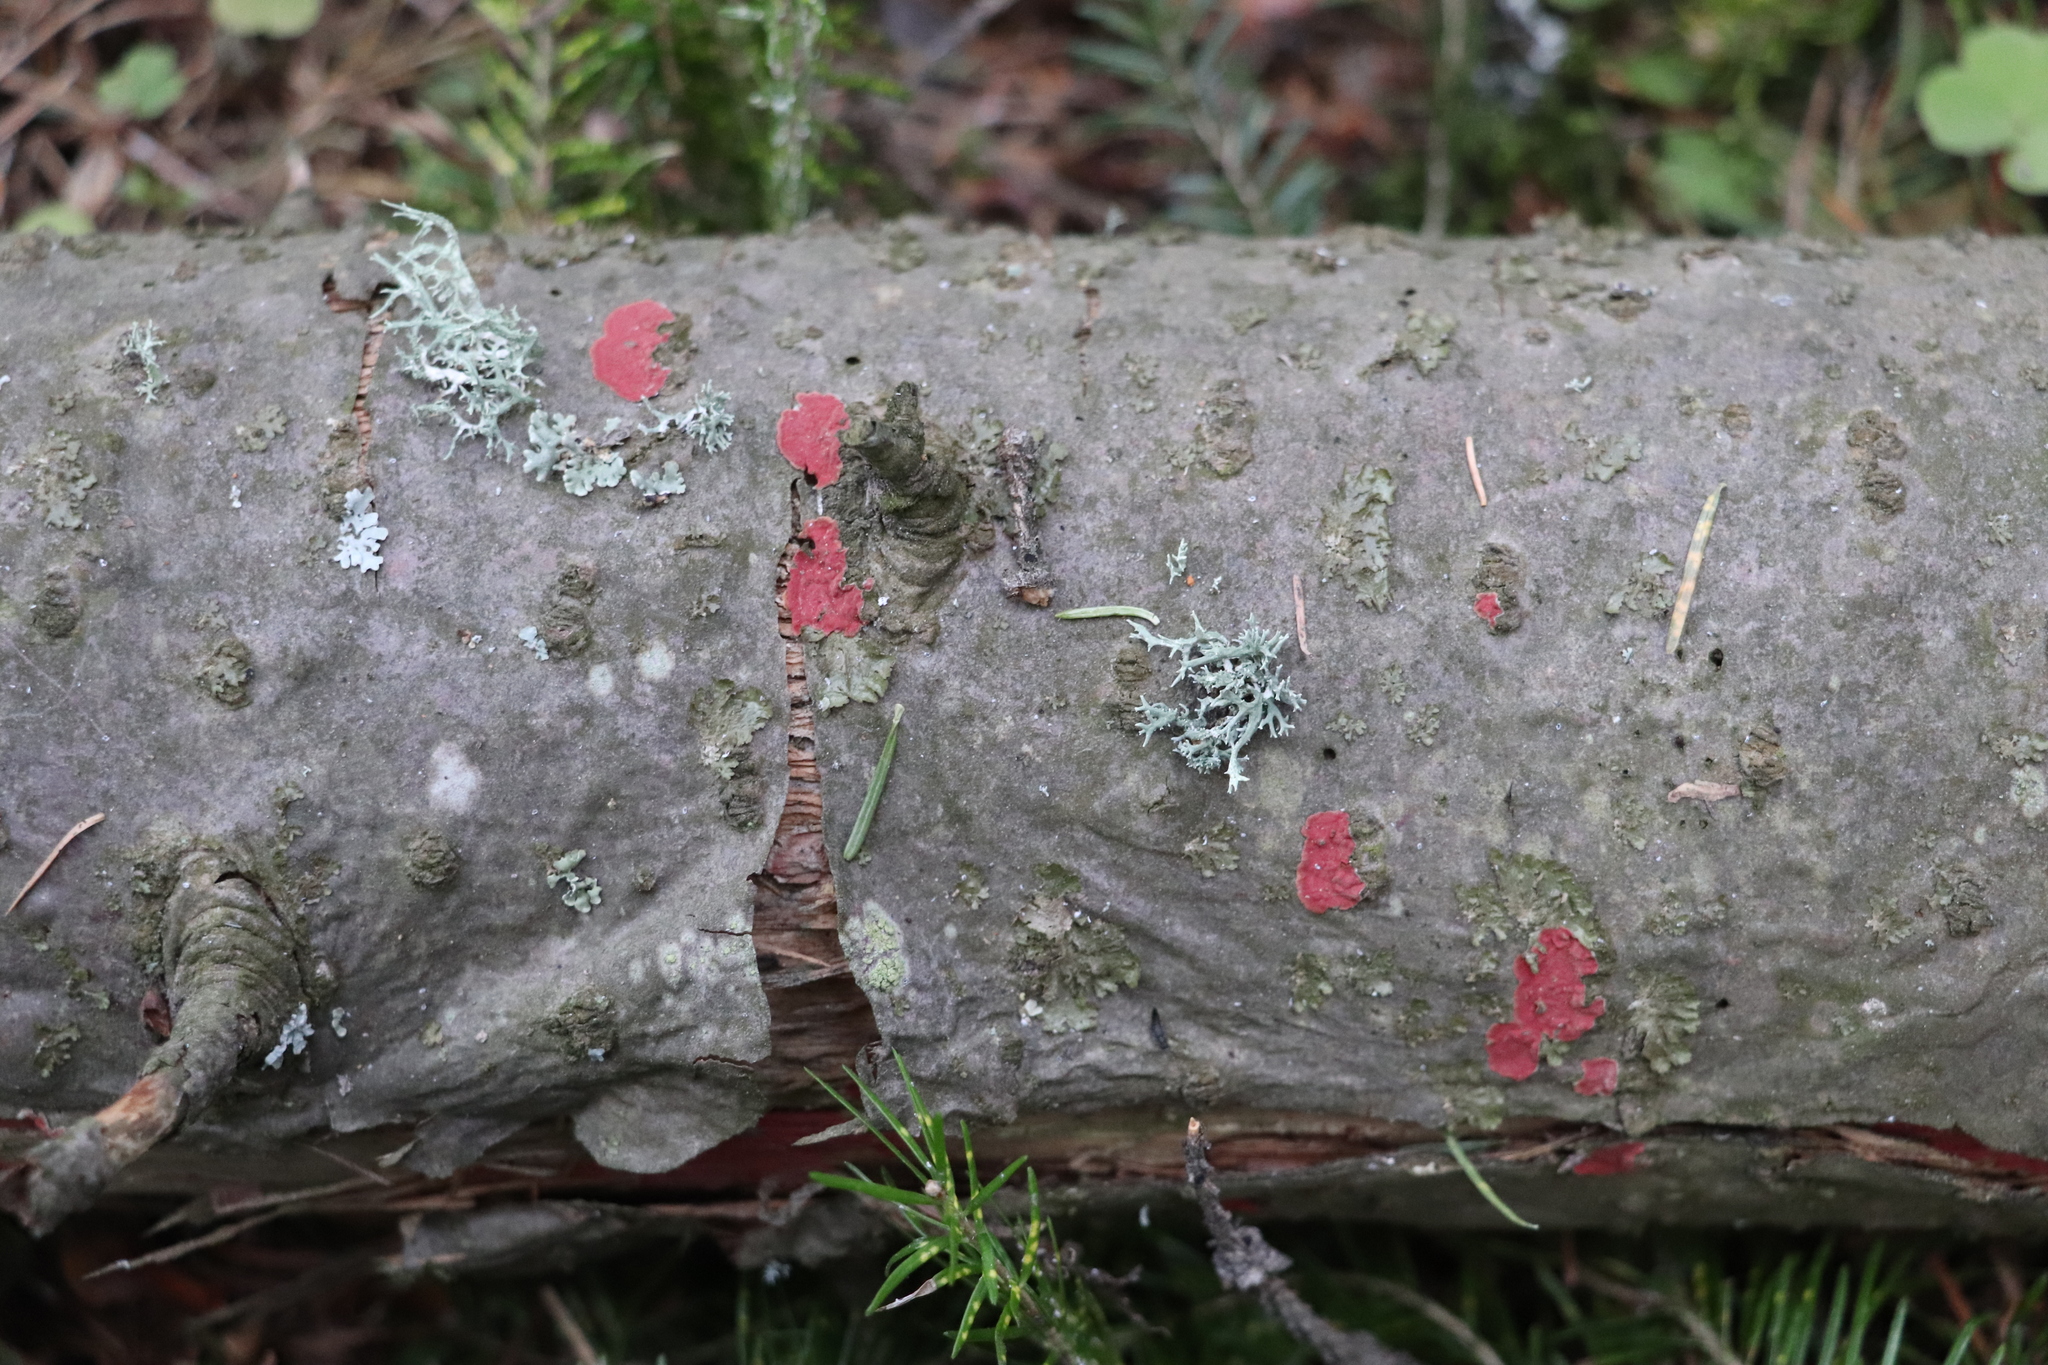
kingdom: Fungi
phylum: Basidiomycota
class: Agaricomycetes
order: Hymenochaetales
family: Hymenochaetaceae
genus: Hymenochaete
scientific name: Hymenochaete cruenta
